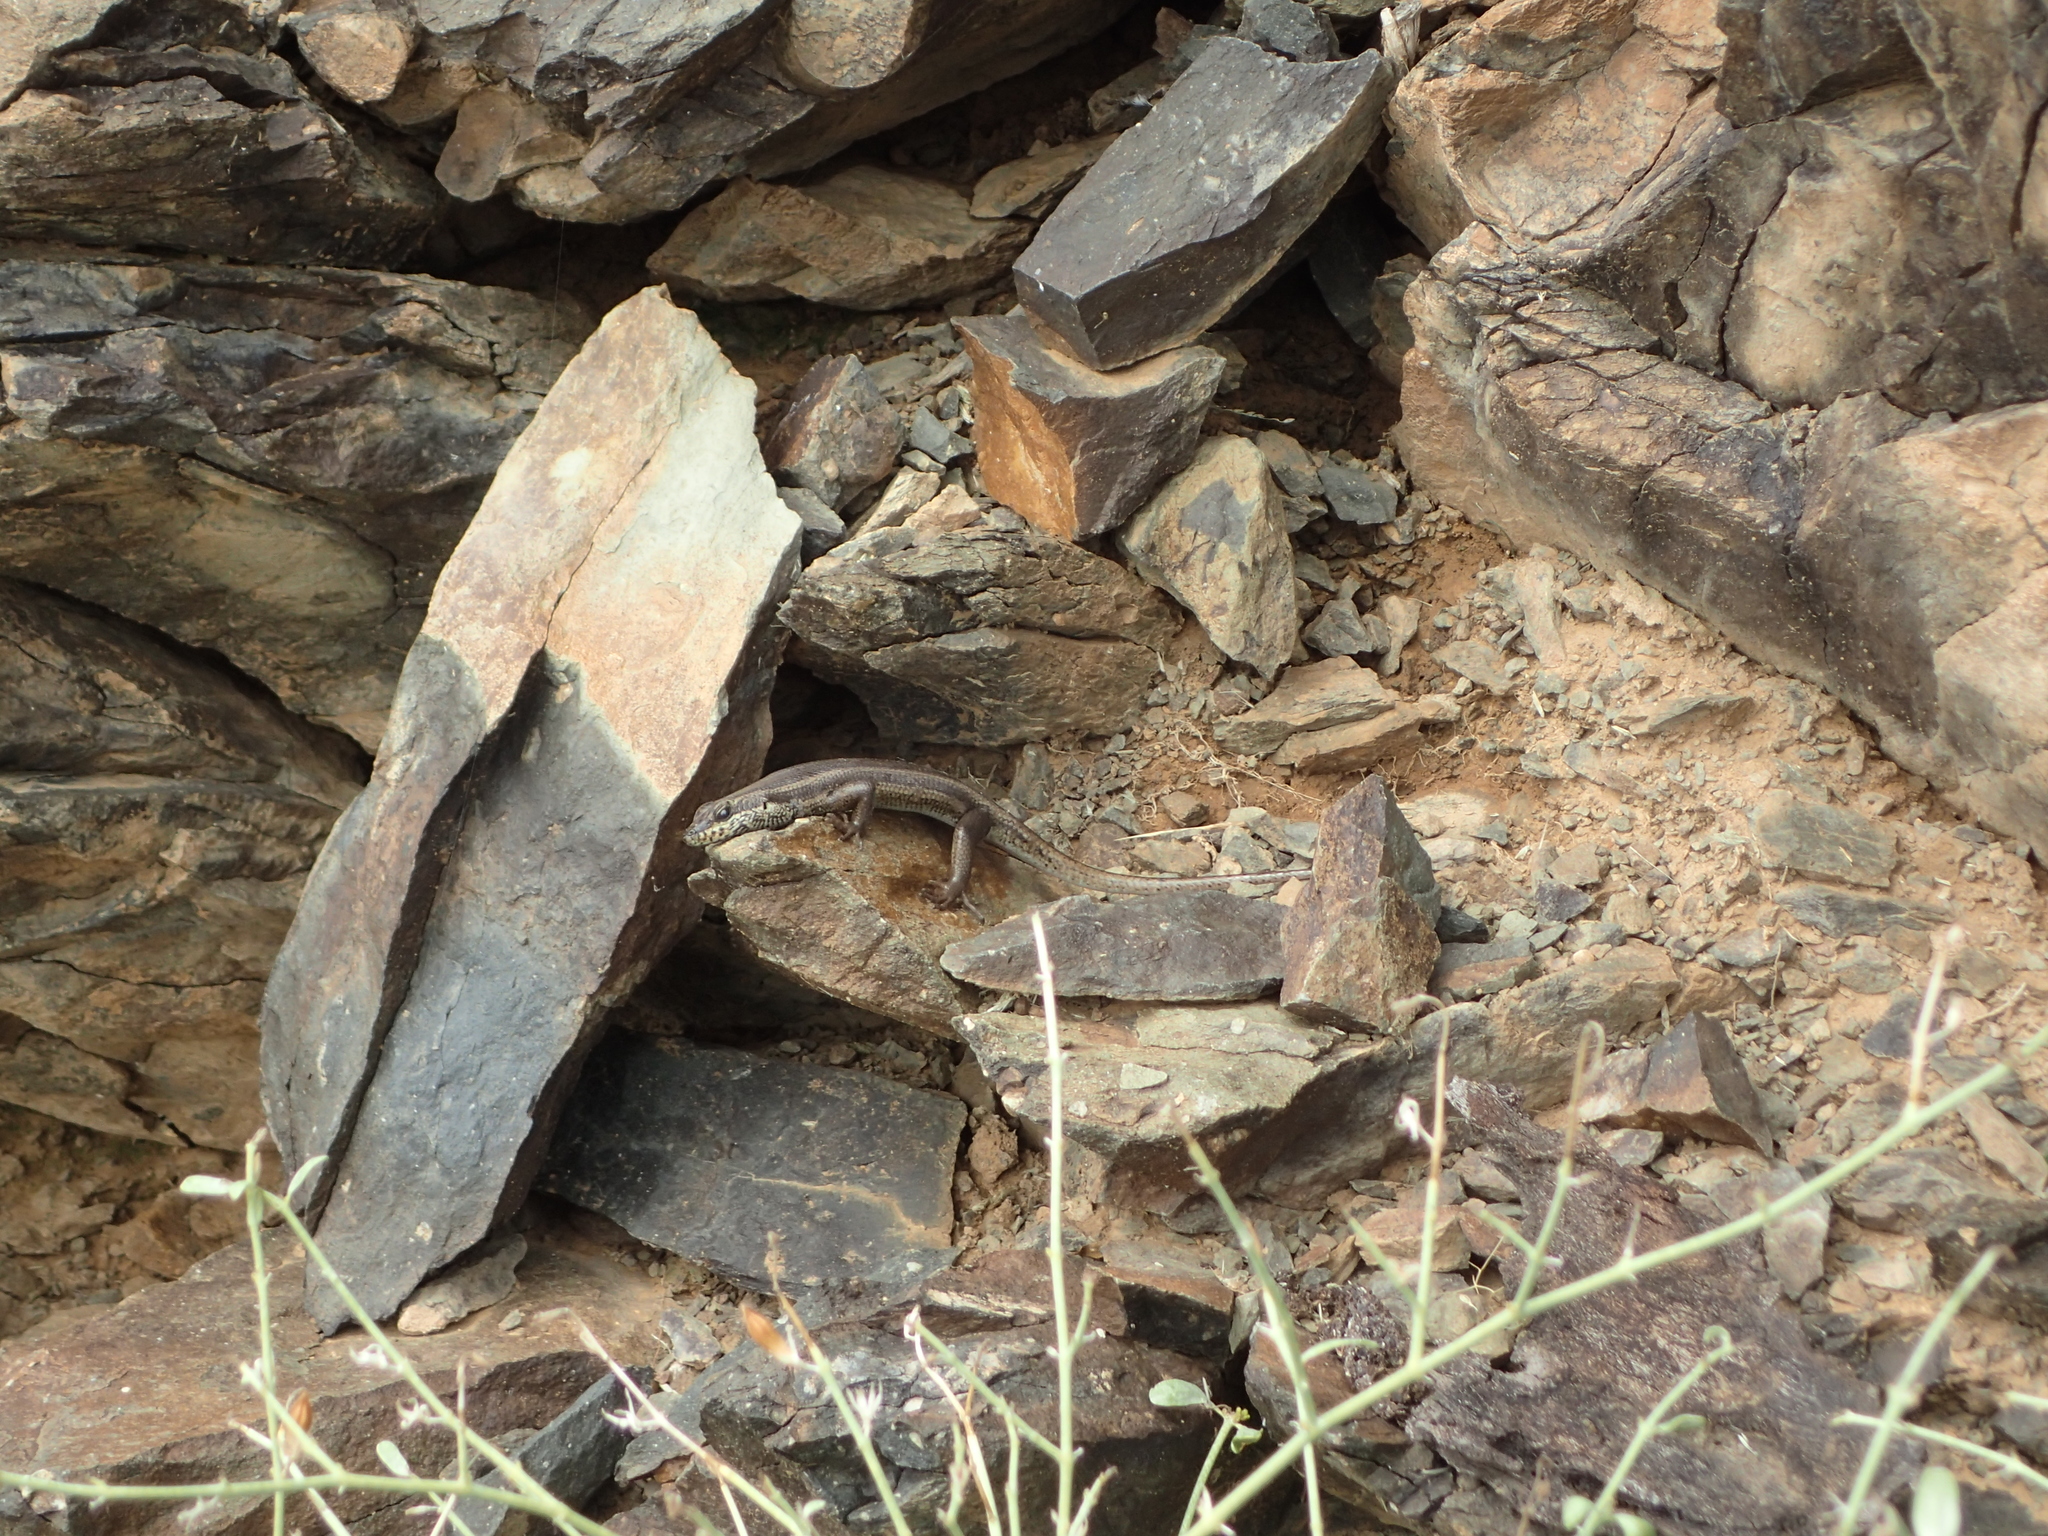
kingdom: Animalia
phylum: Chordata
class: Squamata
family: Scincidae
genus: Trachylepis
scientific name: Trachylepis sulcata
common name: Western rock skink
